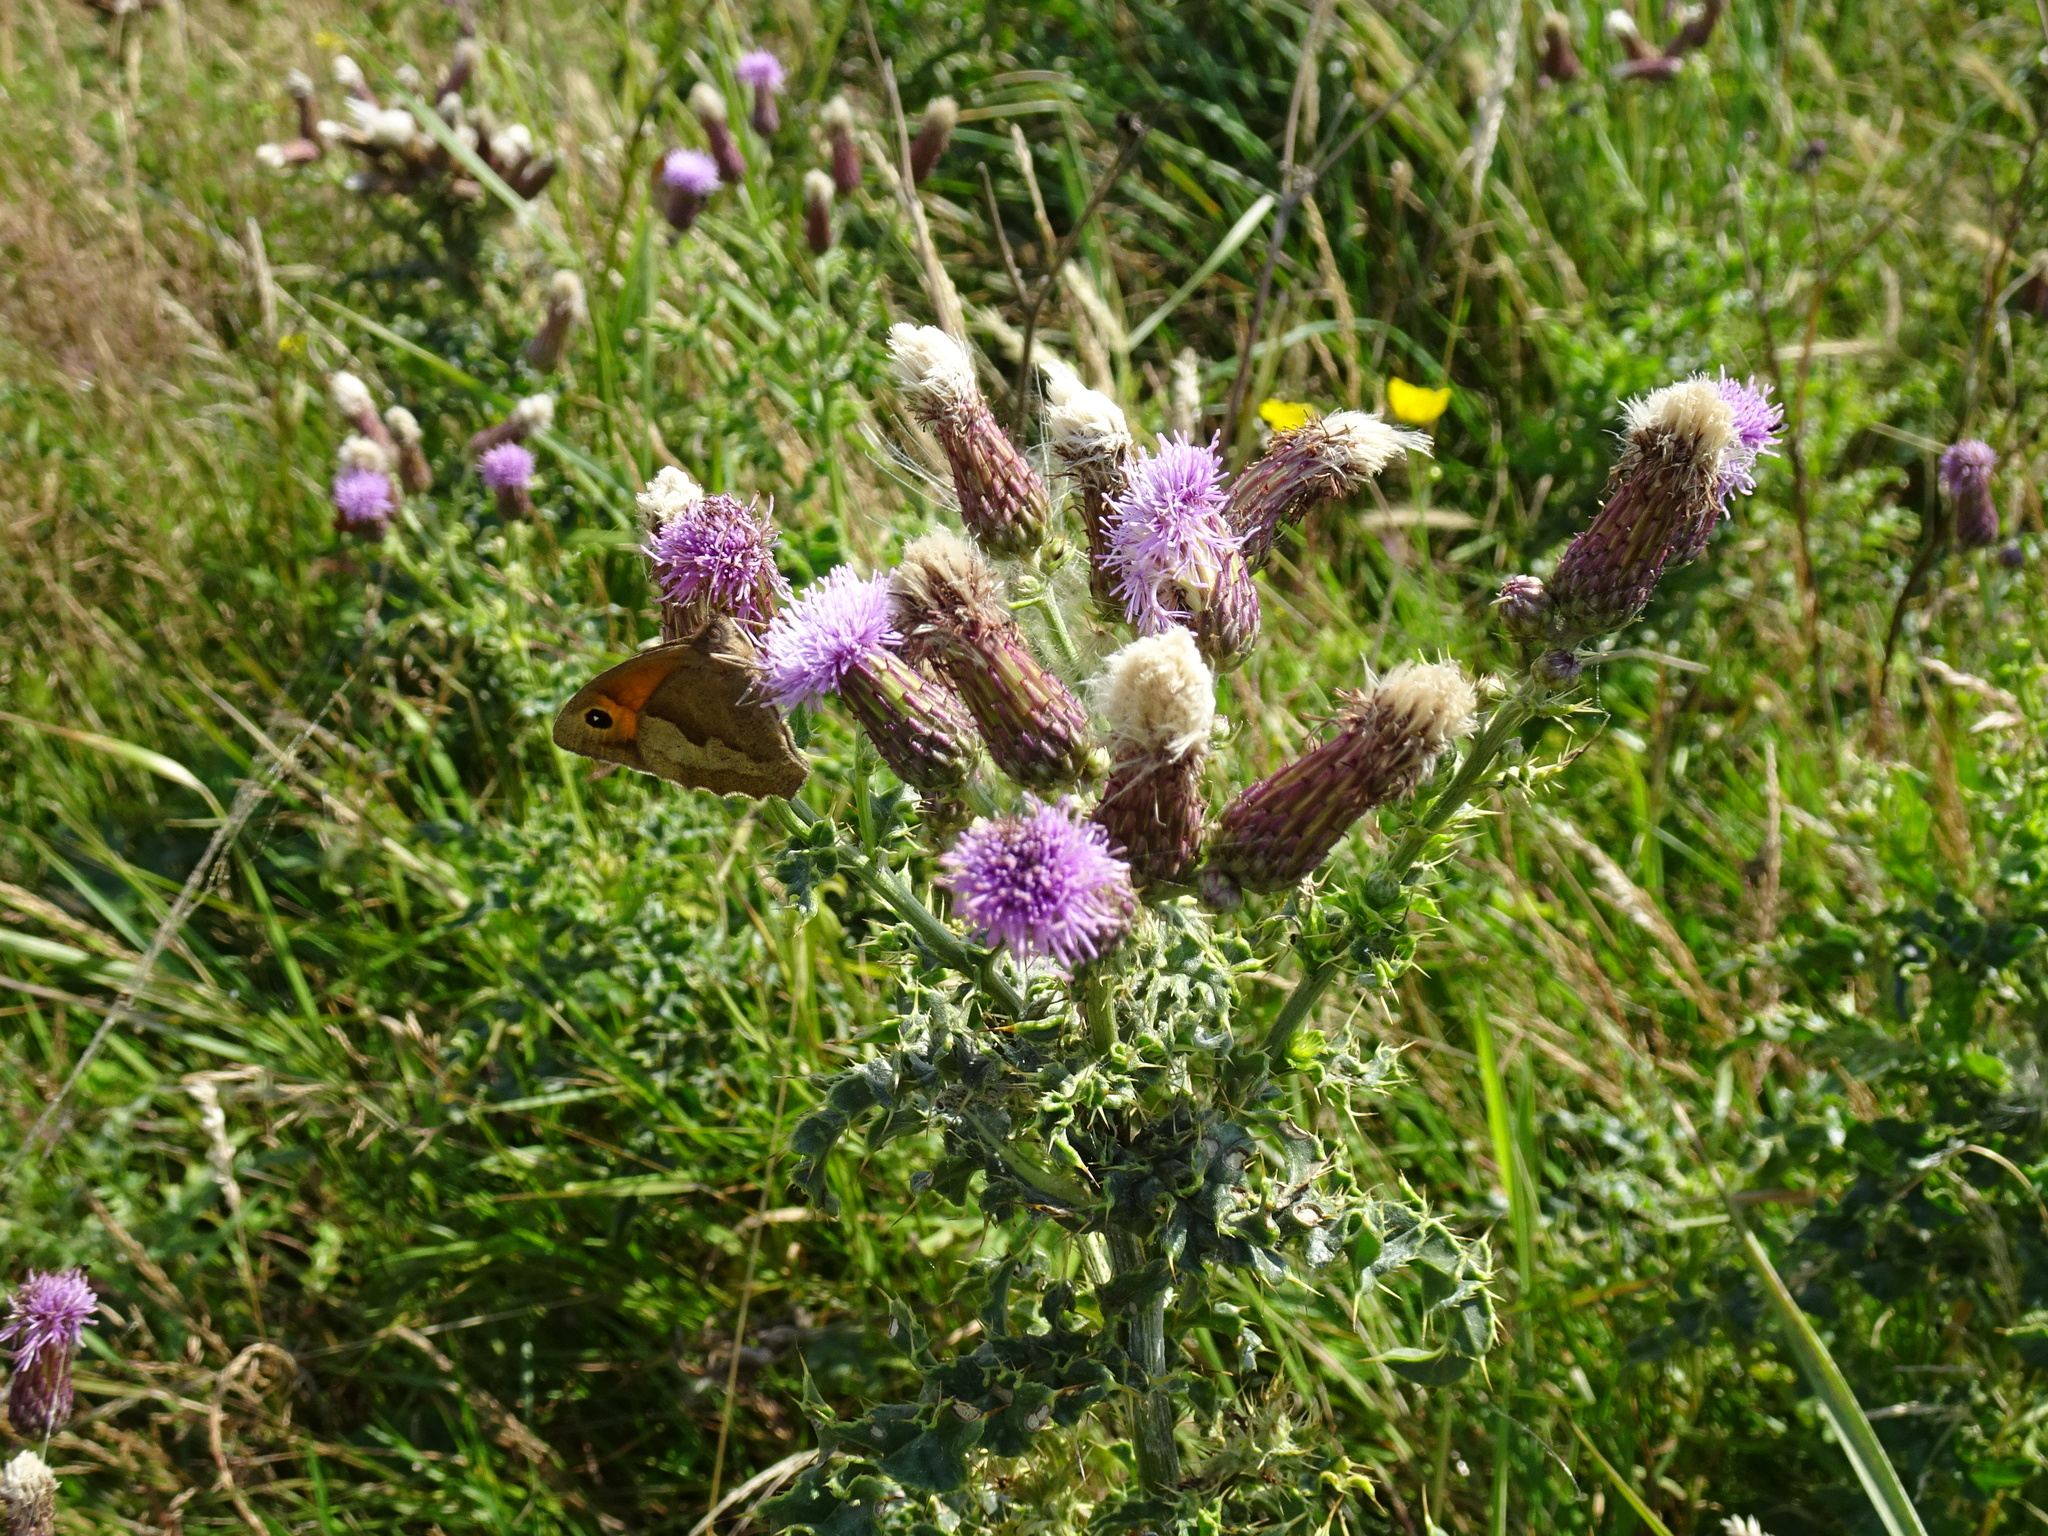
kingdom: Plantae
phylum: Tracheophyta
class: Magnoliopsida
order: Asterales
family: Asteraceae
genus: Cirsium
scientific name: Cirsium arvense
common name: Creeping thistle
